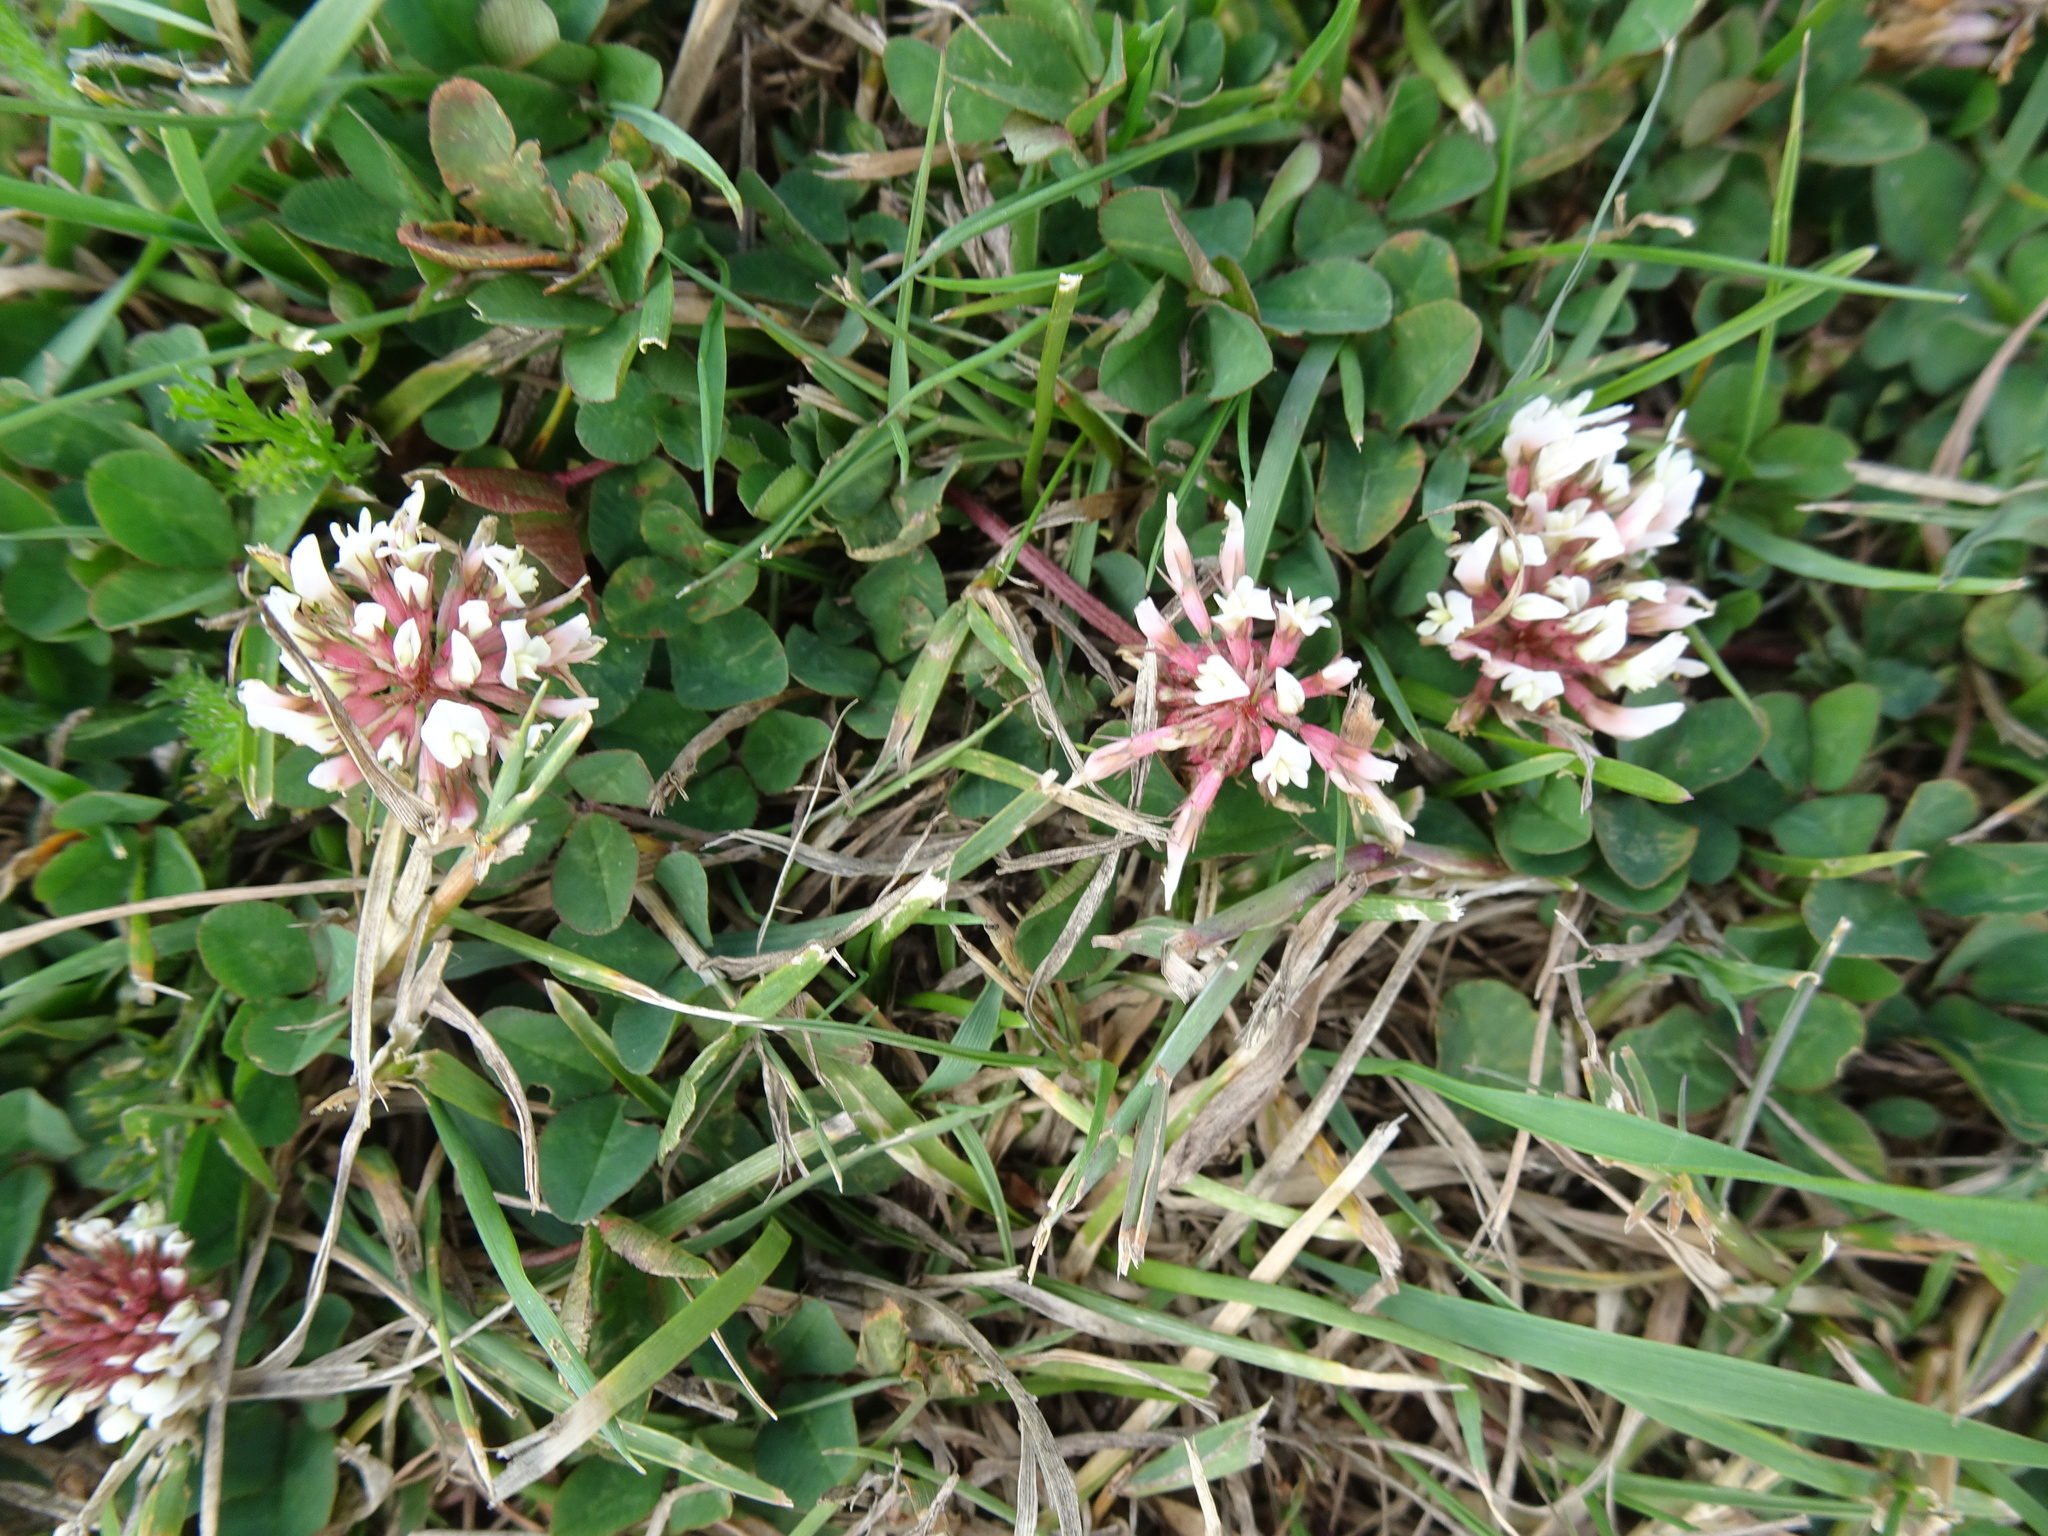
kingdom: Plantae
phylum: Tracheophyta
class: Magnoliopsida
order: Fabales
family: Fabaceae
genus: Trifolium
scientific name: Trifolium repens
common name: White clover
